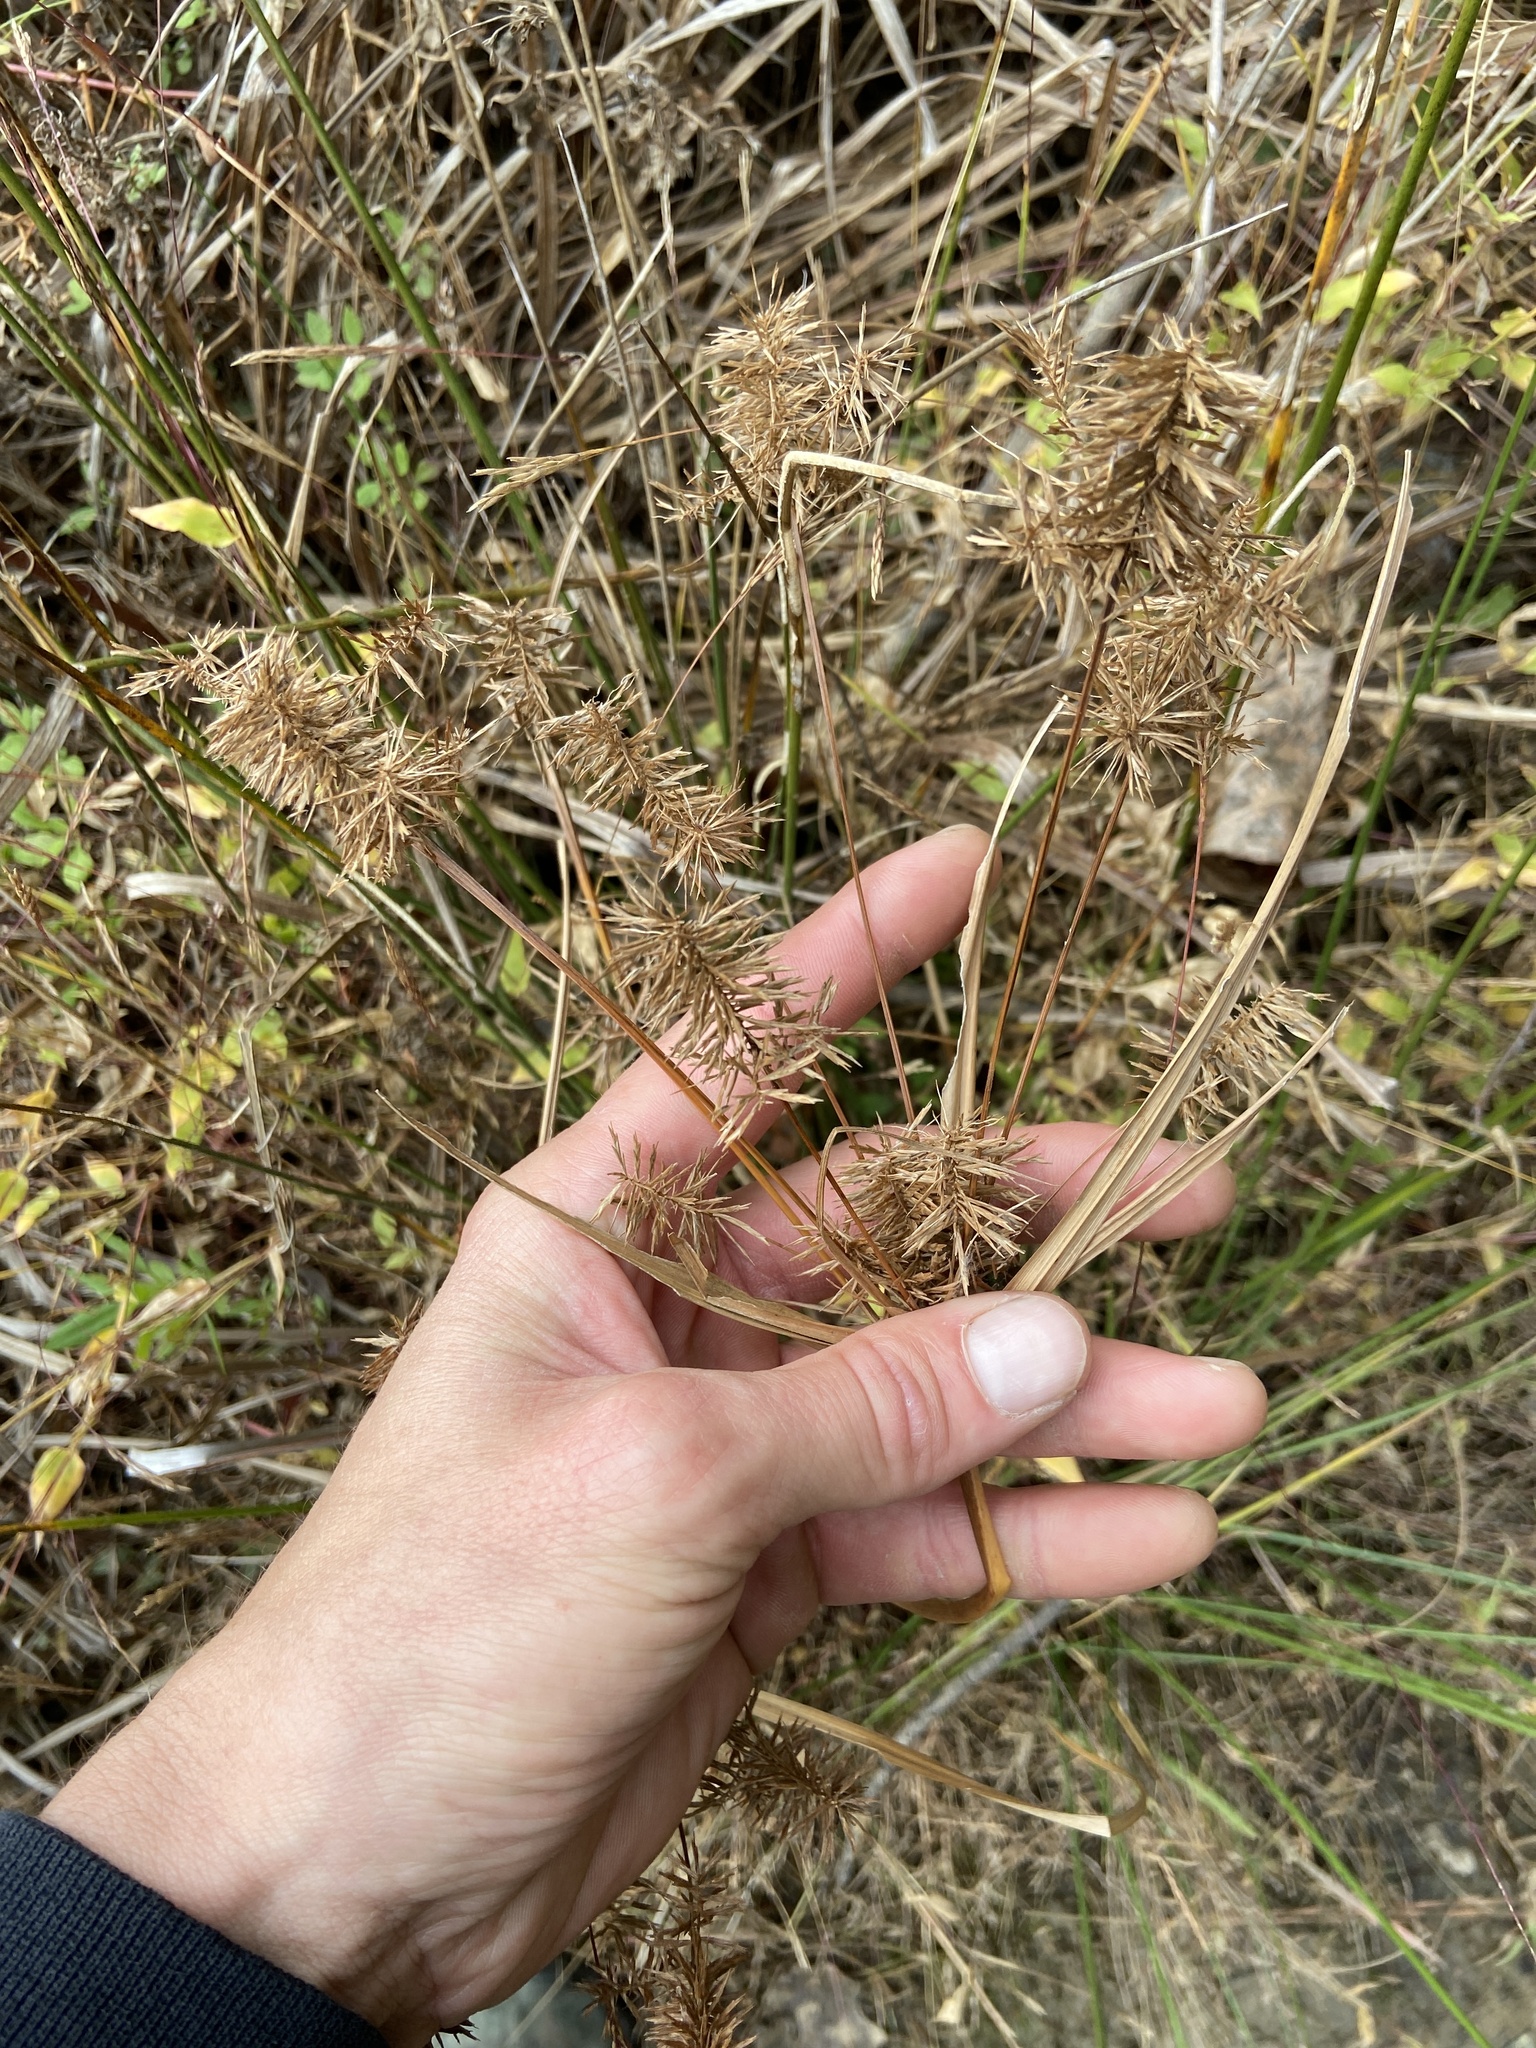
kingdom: Plantae
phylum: Tracheophyta
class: Liliopsida
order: Poales
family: Cyperaceae
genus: Cyperus
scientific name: Cyperus strigosus
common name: False nutsedge
